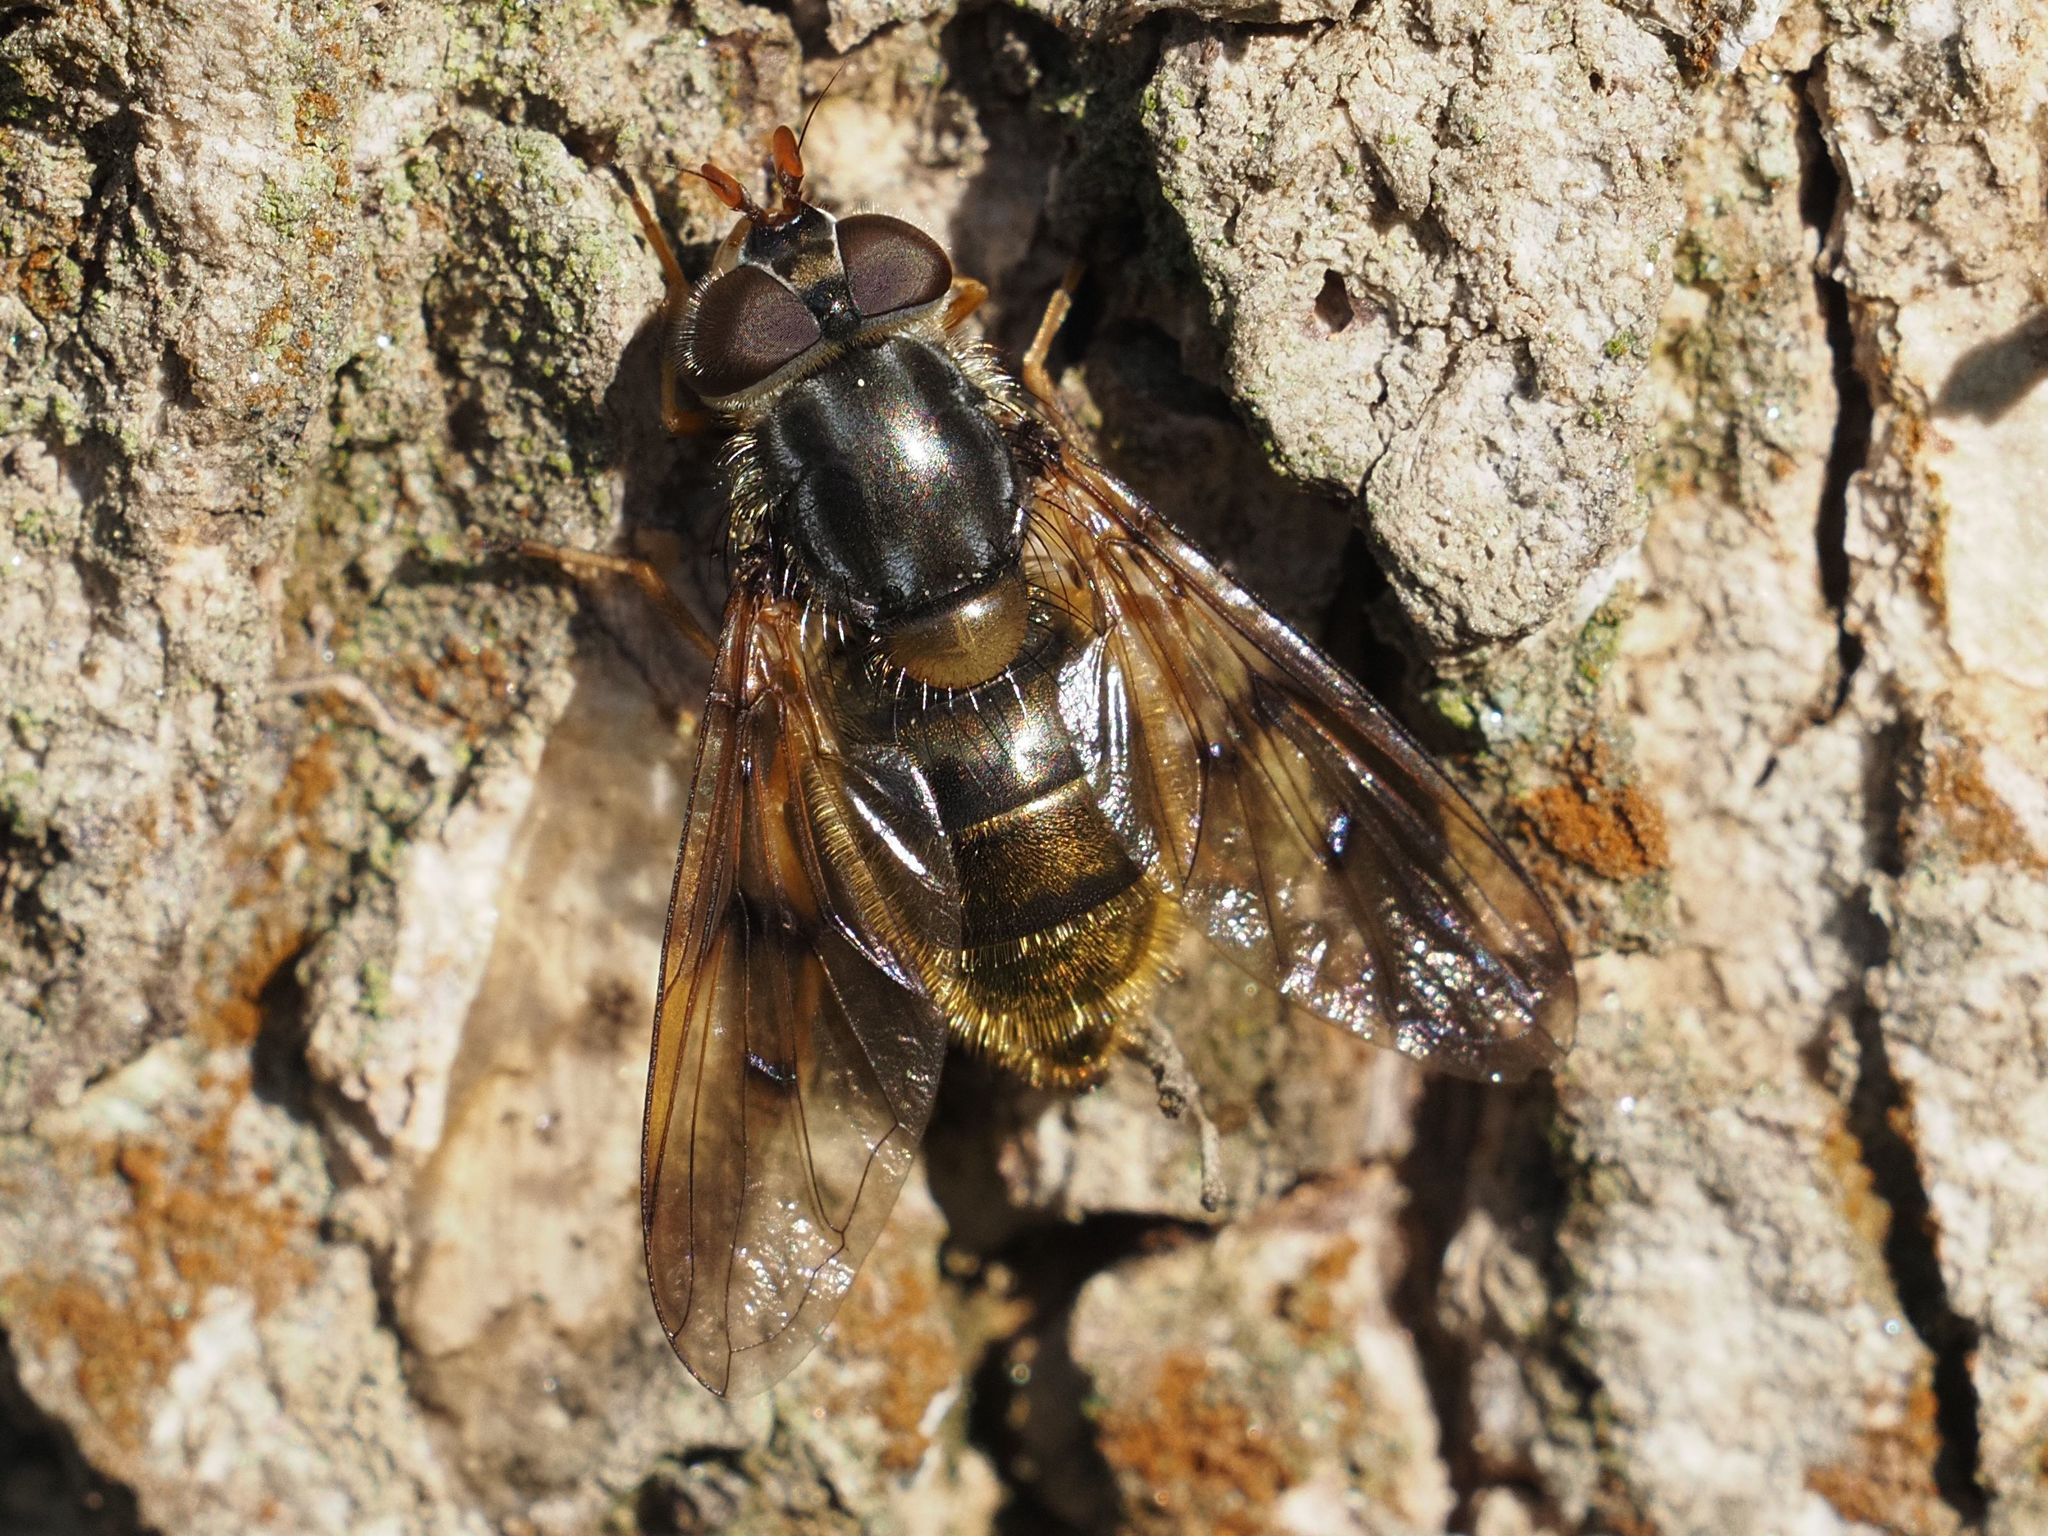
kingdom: Animalia
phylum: Arthropoda
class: Insecta
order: Diptera
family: Syrphidae
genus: Ferdinandea
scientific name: Ferdinandea cuprea
